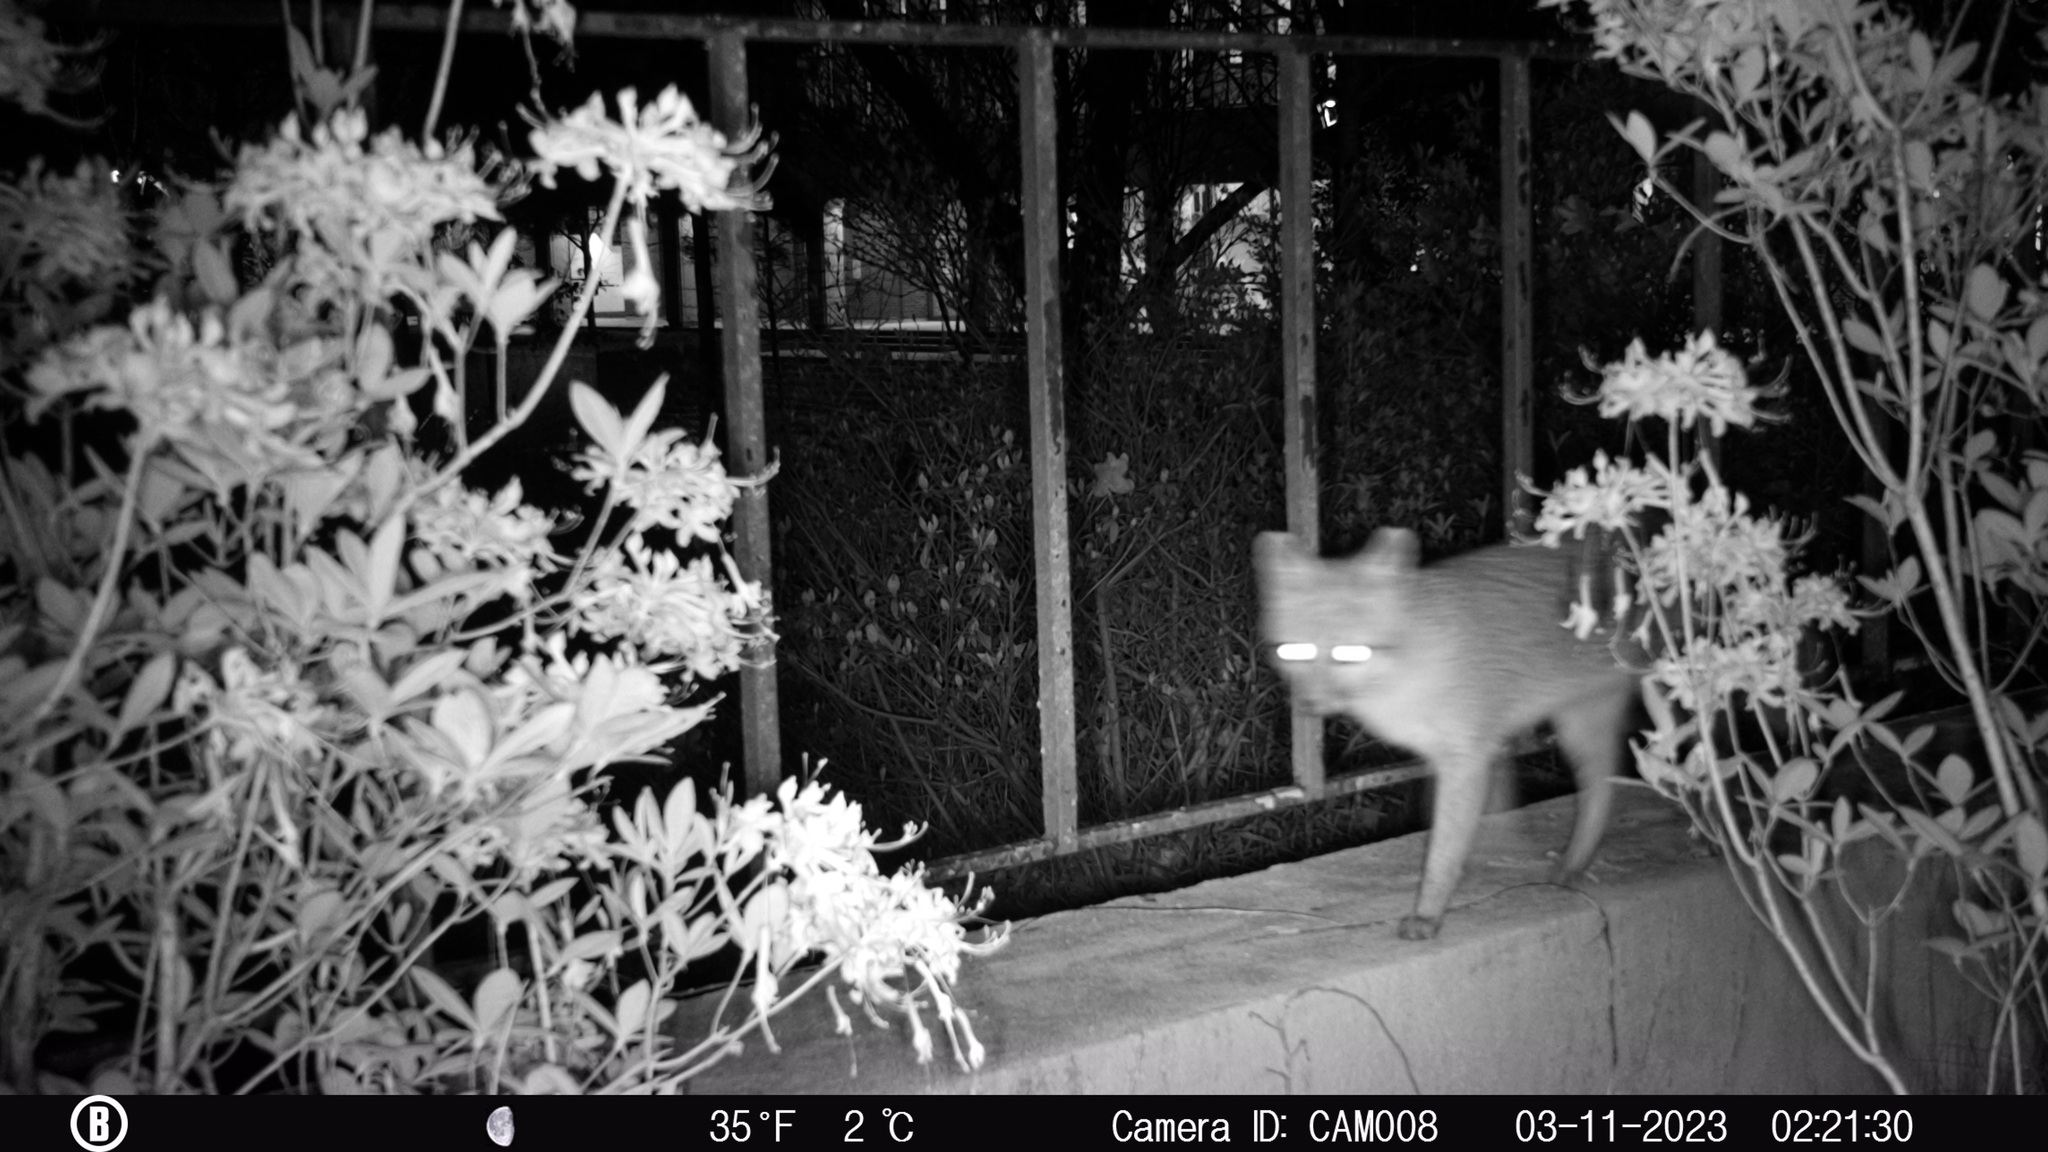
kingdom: Animalia
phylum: Chordata
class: Mammalia
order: Carnivora
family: Canidae
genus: Urocyon
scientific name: Urocyon cinereoargenteus
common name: Gray fox
